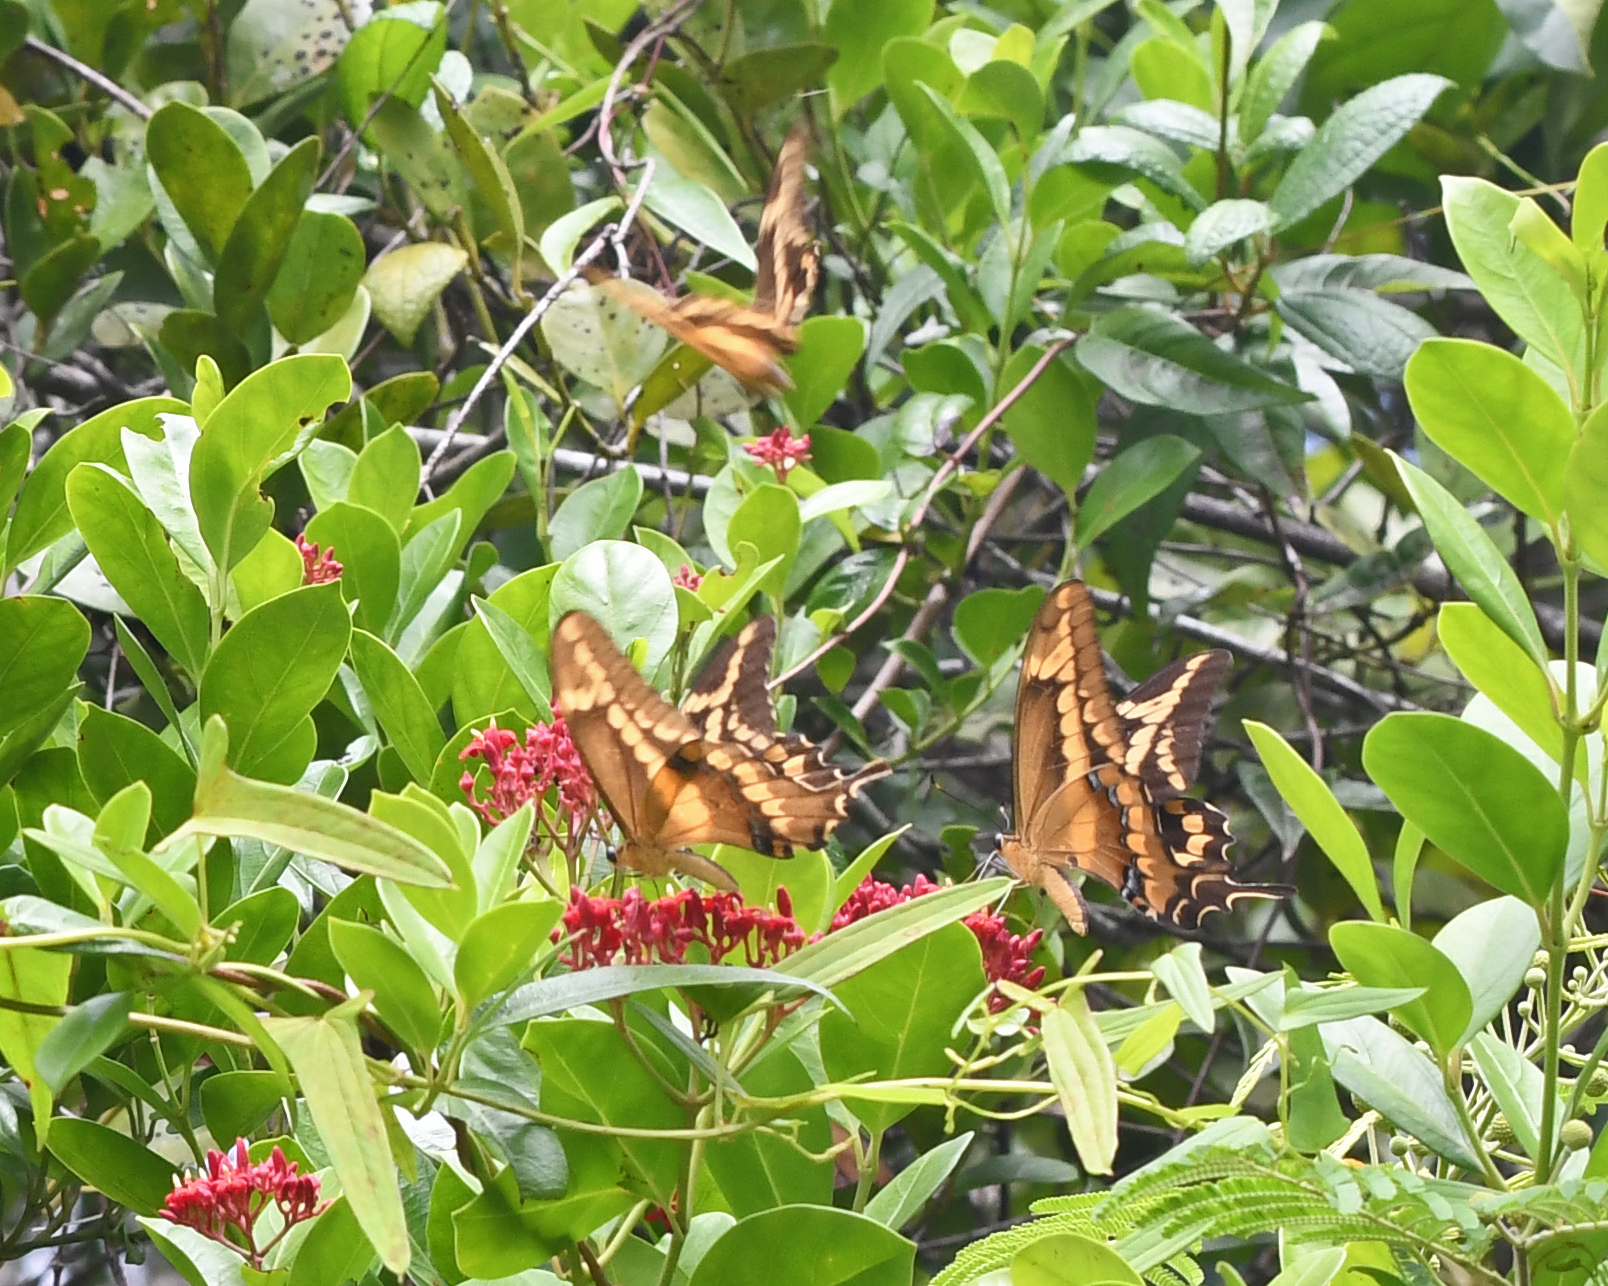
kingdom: Animalia
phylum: Arthropoda
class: Insecta
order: Lepidoptera
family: Papilionidae
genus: Papilio
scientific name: Papilio aristodemus
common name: Schaus' swallowtail
